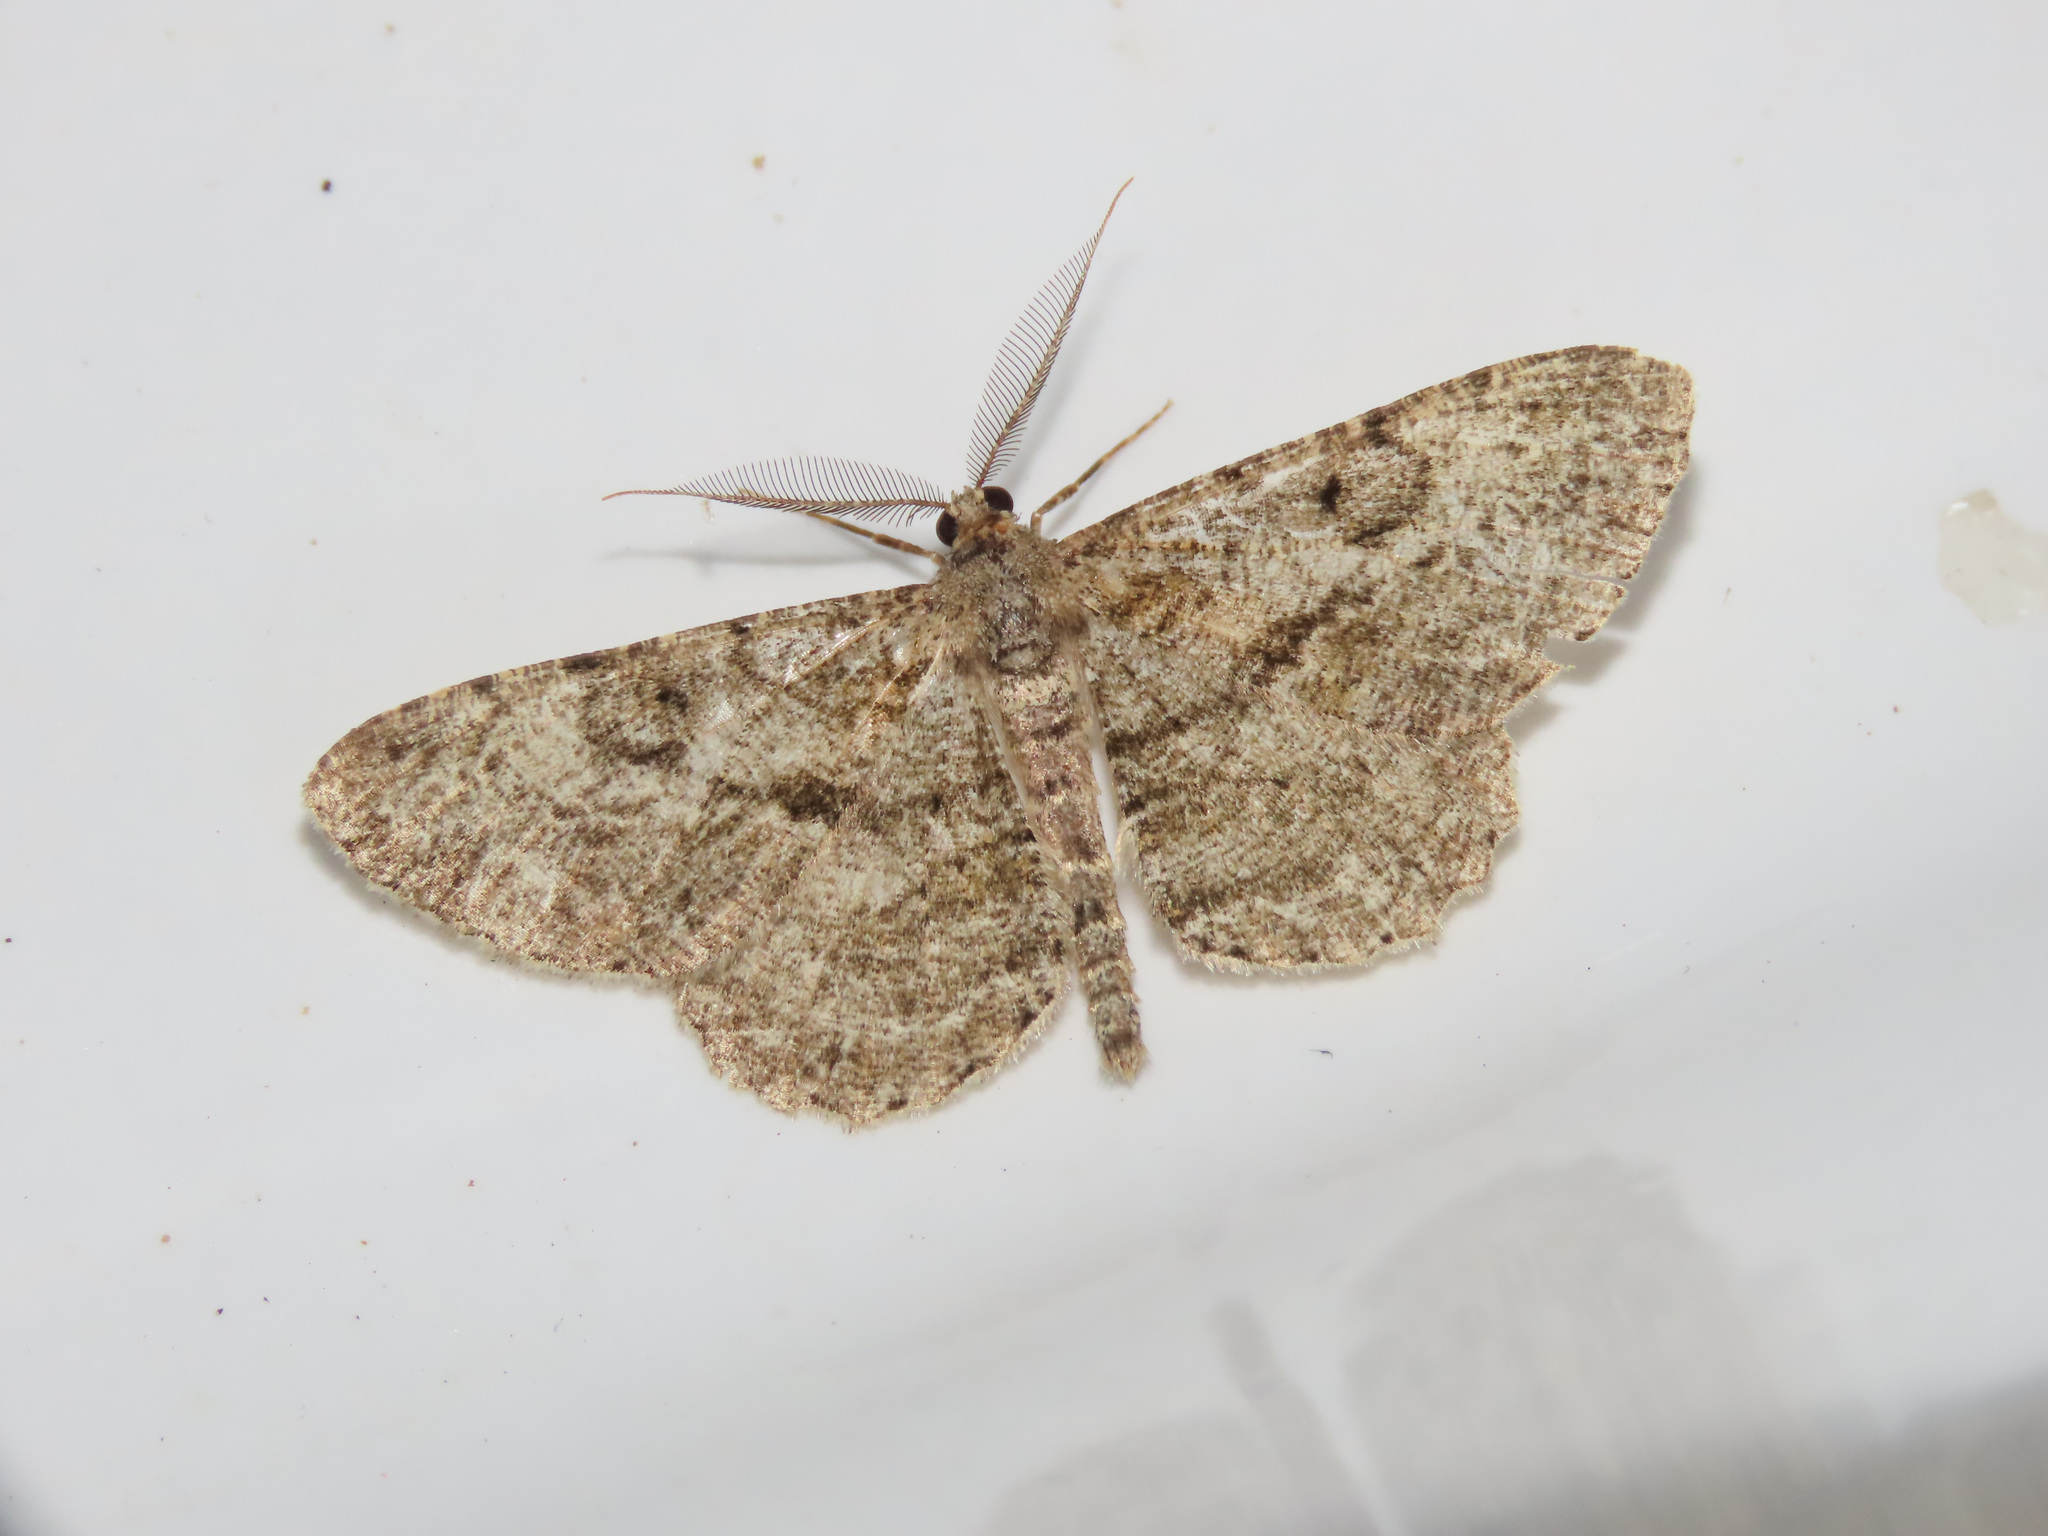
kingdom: Animalia
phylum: Arthropoda
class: Insecta
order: Lepidoptera
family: Geometridae
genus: Peribatodes
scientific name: Peribatodes rhomboidaria
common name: Willow beauty
